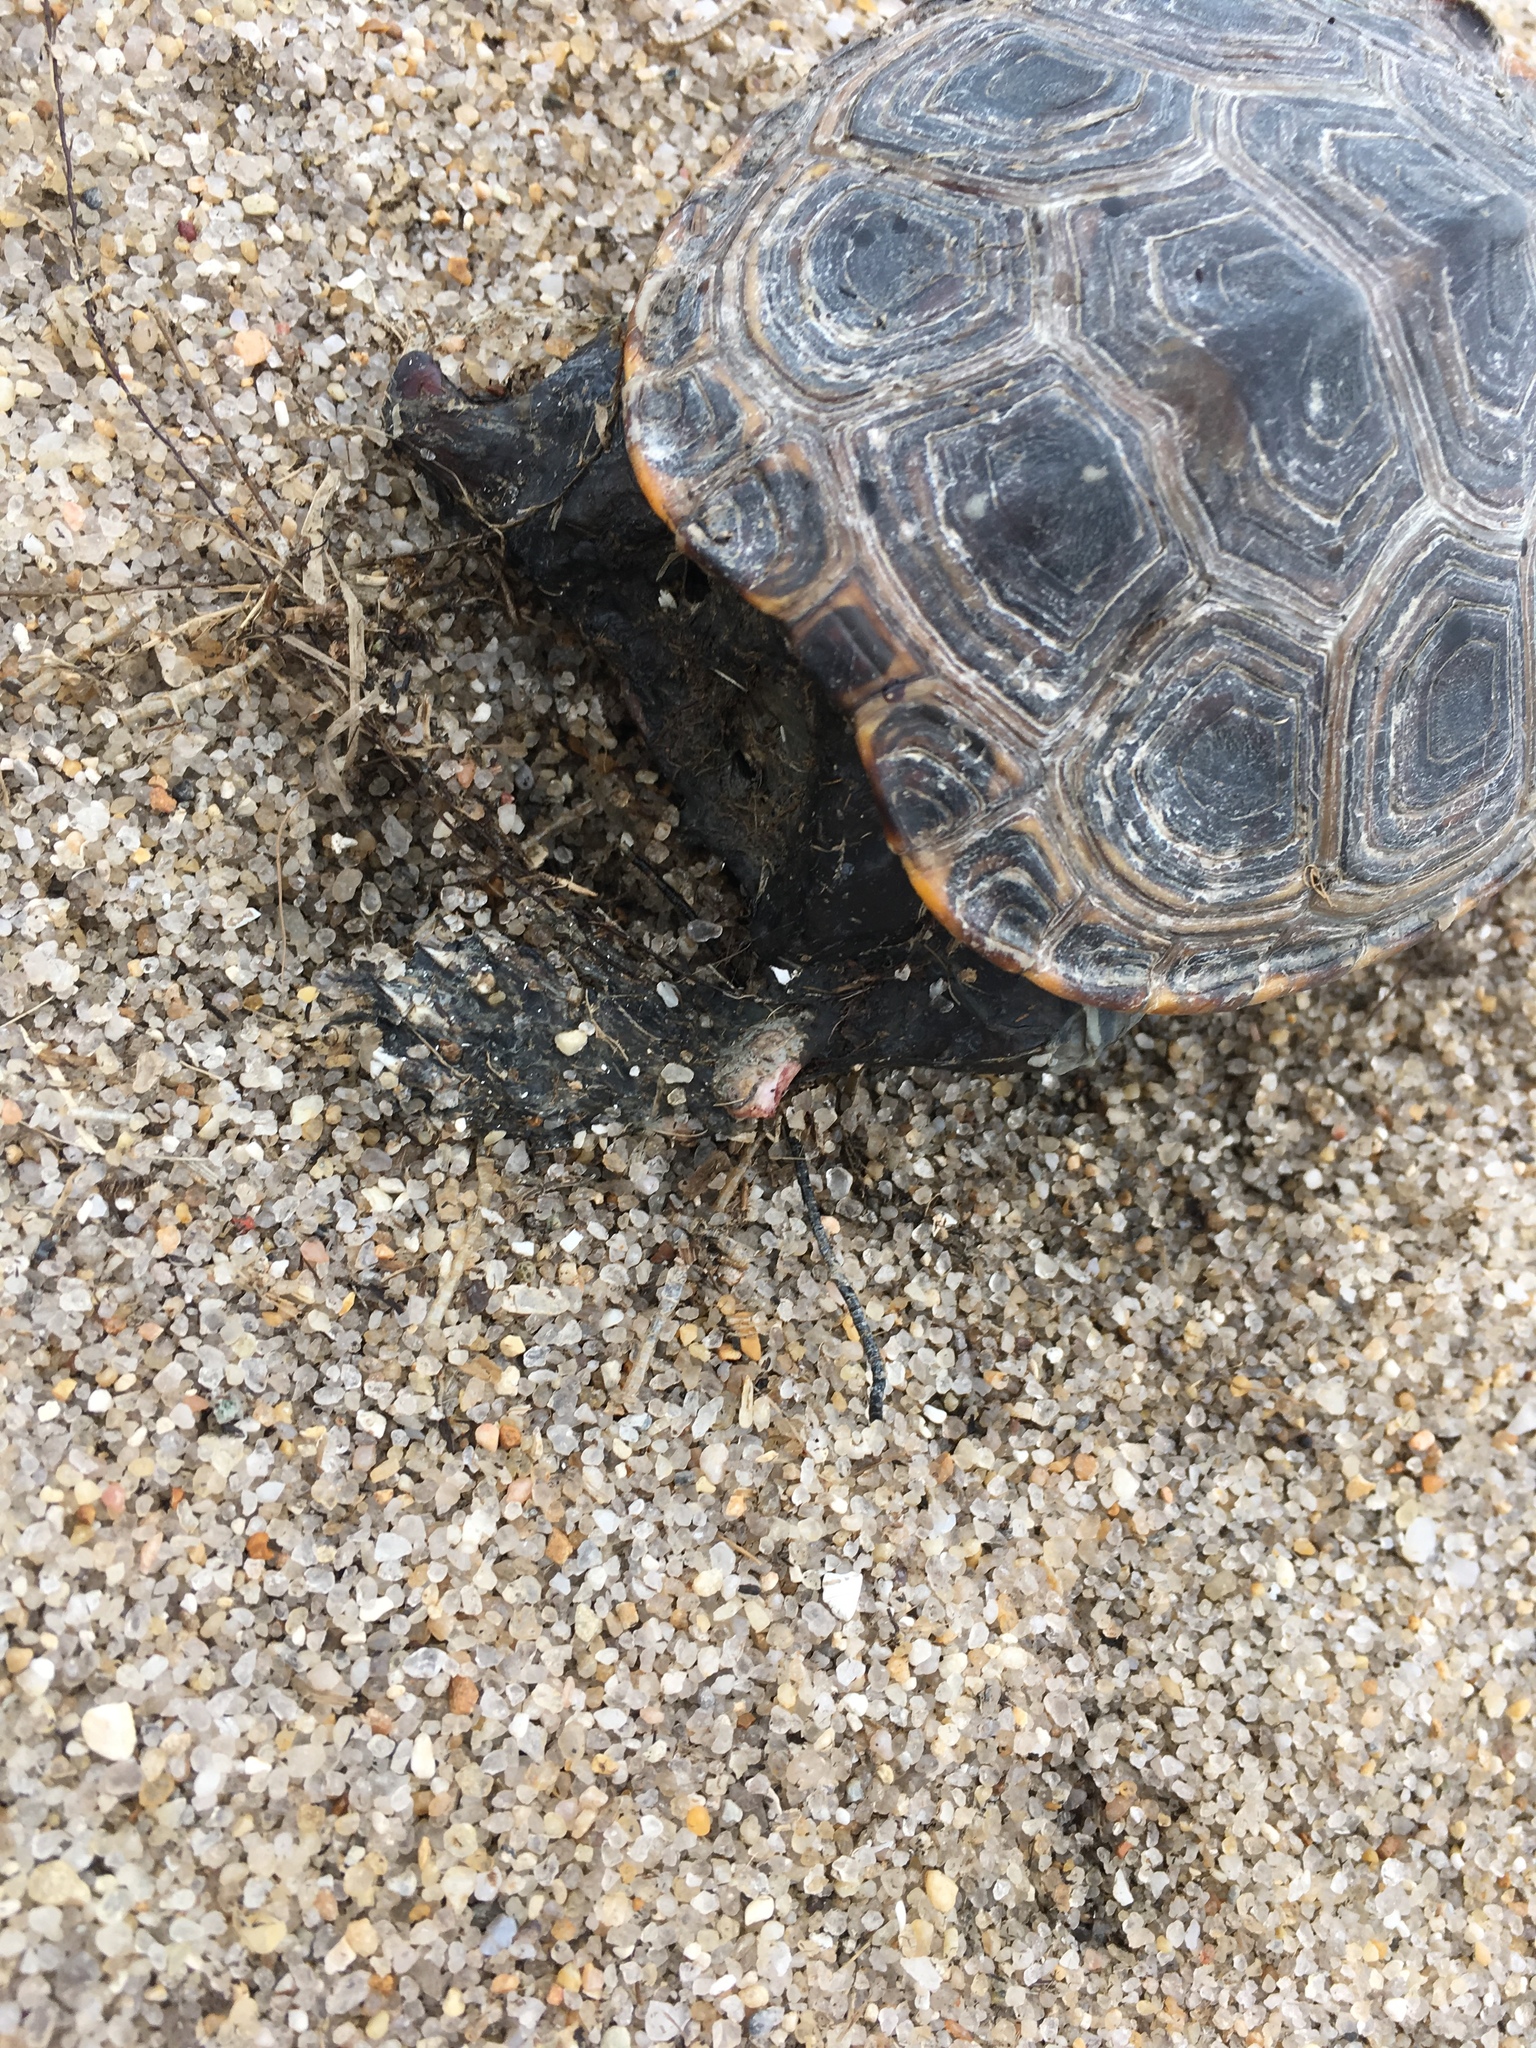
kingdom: Animalia
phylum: Chordata
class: Testudines
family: Emydidae
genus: Malaclemys
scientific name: Malaclemys terrapin
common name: Diamondback terrapin
